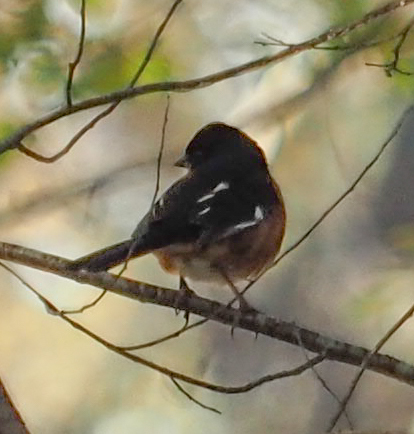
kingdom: Animalia
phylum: Chordata
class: Aves
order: Passeriformes
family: Passerellidae
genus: Pipilo
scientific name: Pipilo erythrophthalmus
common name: Eastern towhee
